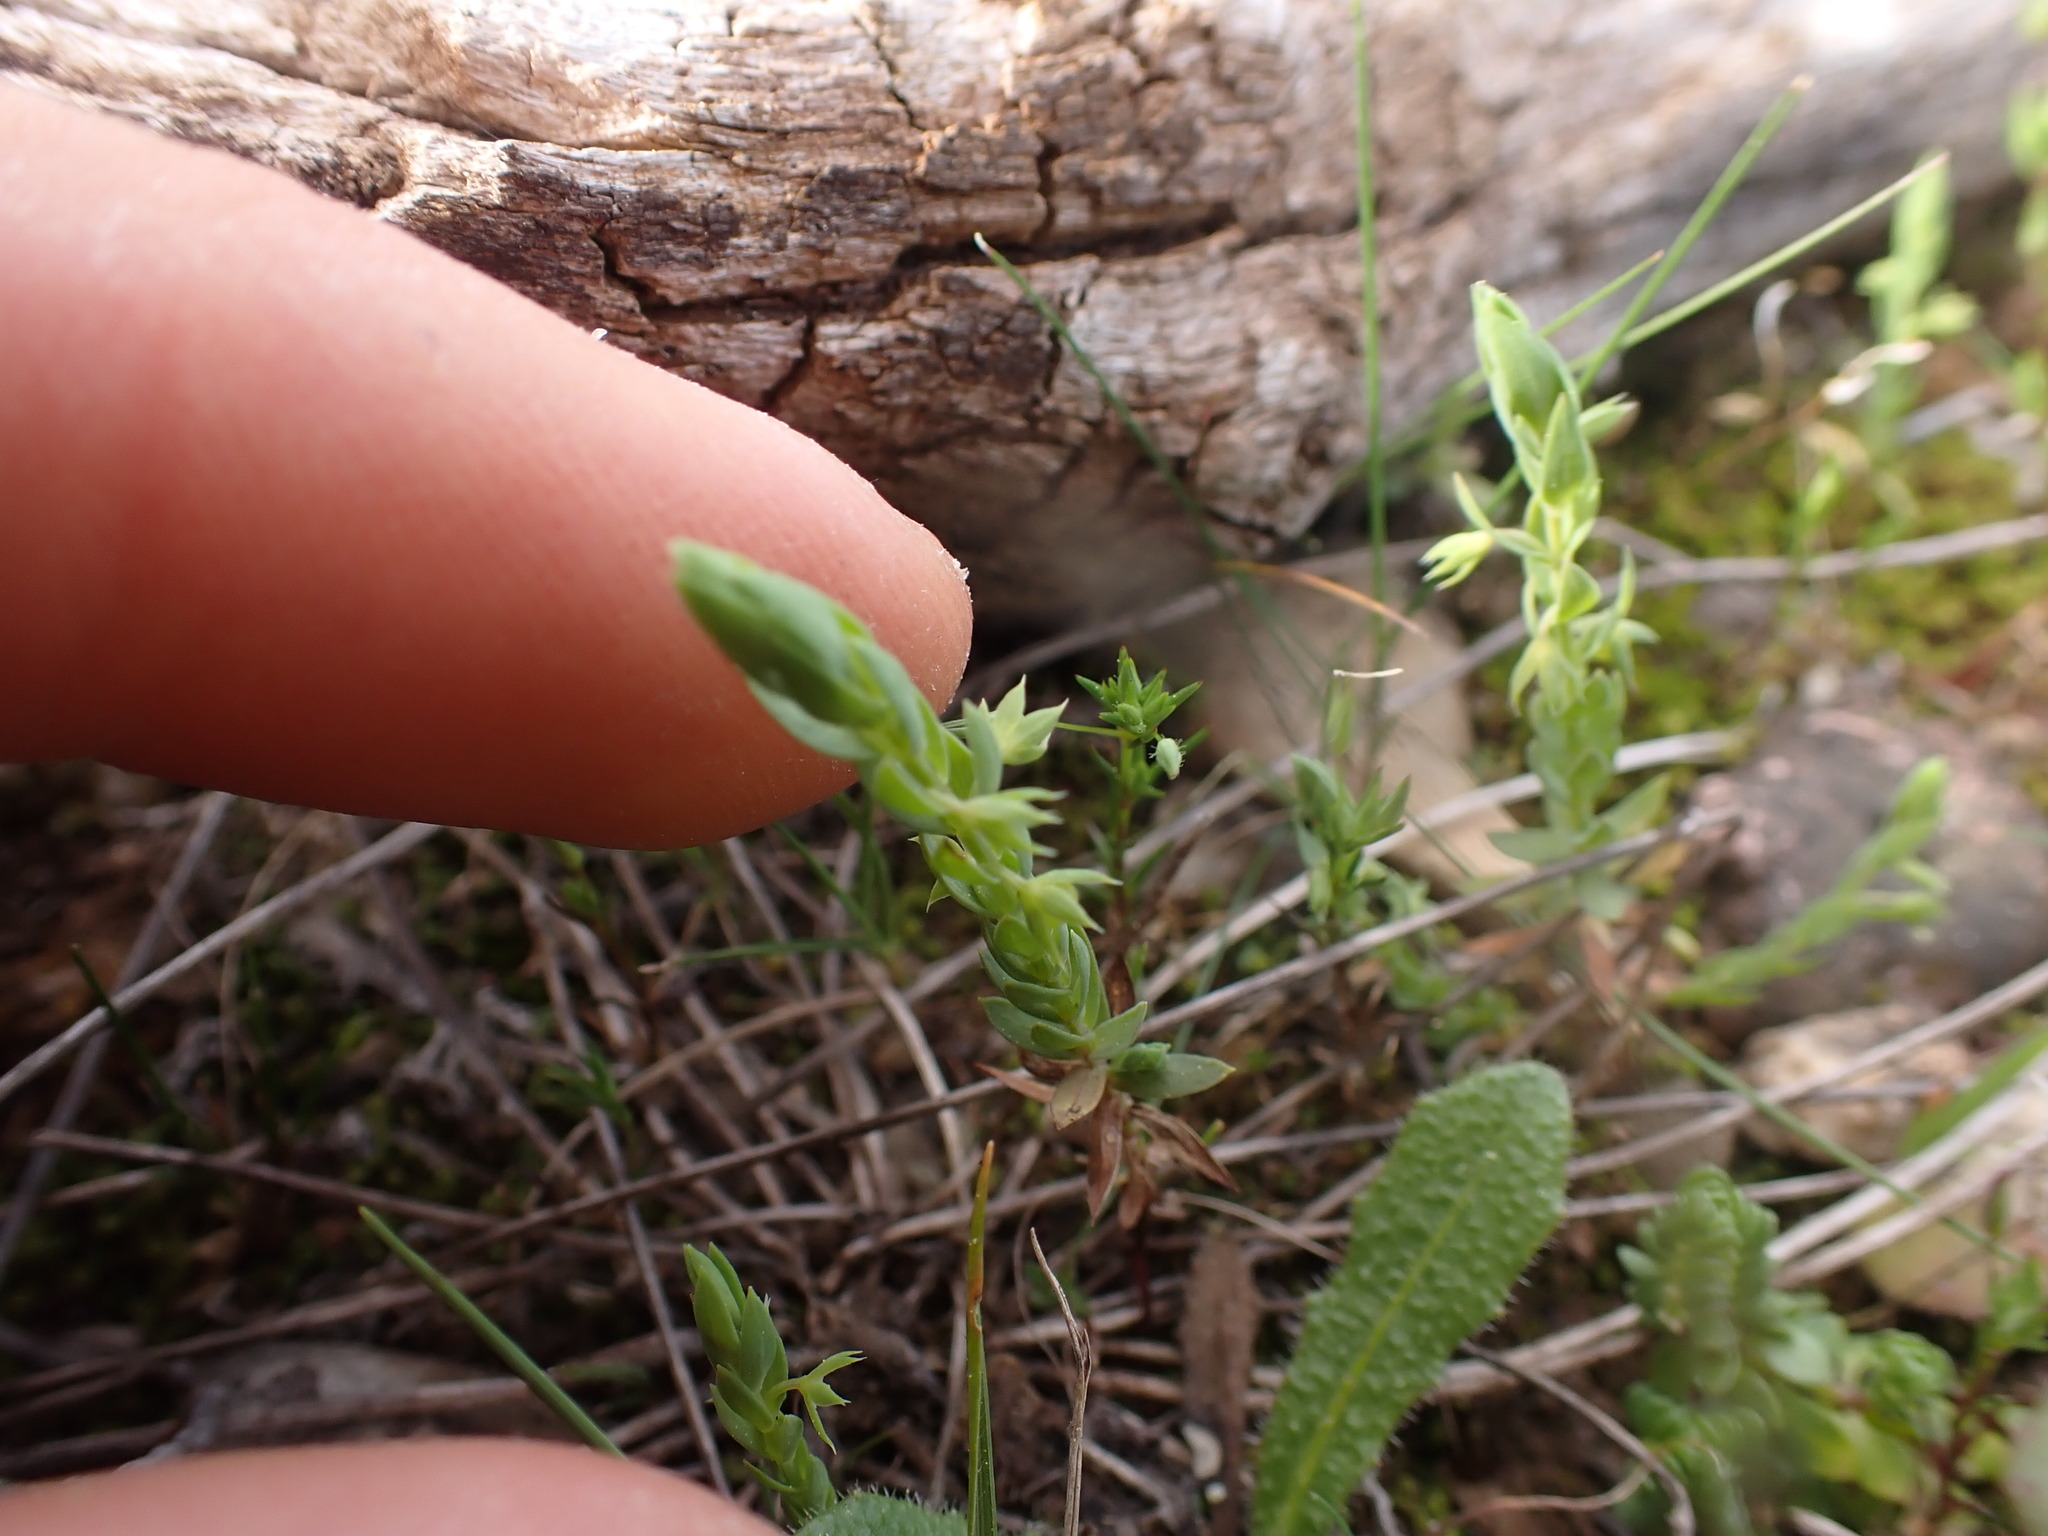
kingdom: Plantae
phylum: Tracheophyta
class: Magnoliopsida
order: Ericales
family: Primulaceae
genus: Lysimachia
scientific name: Lysimachia linum-stellatum
